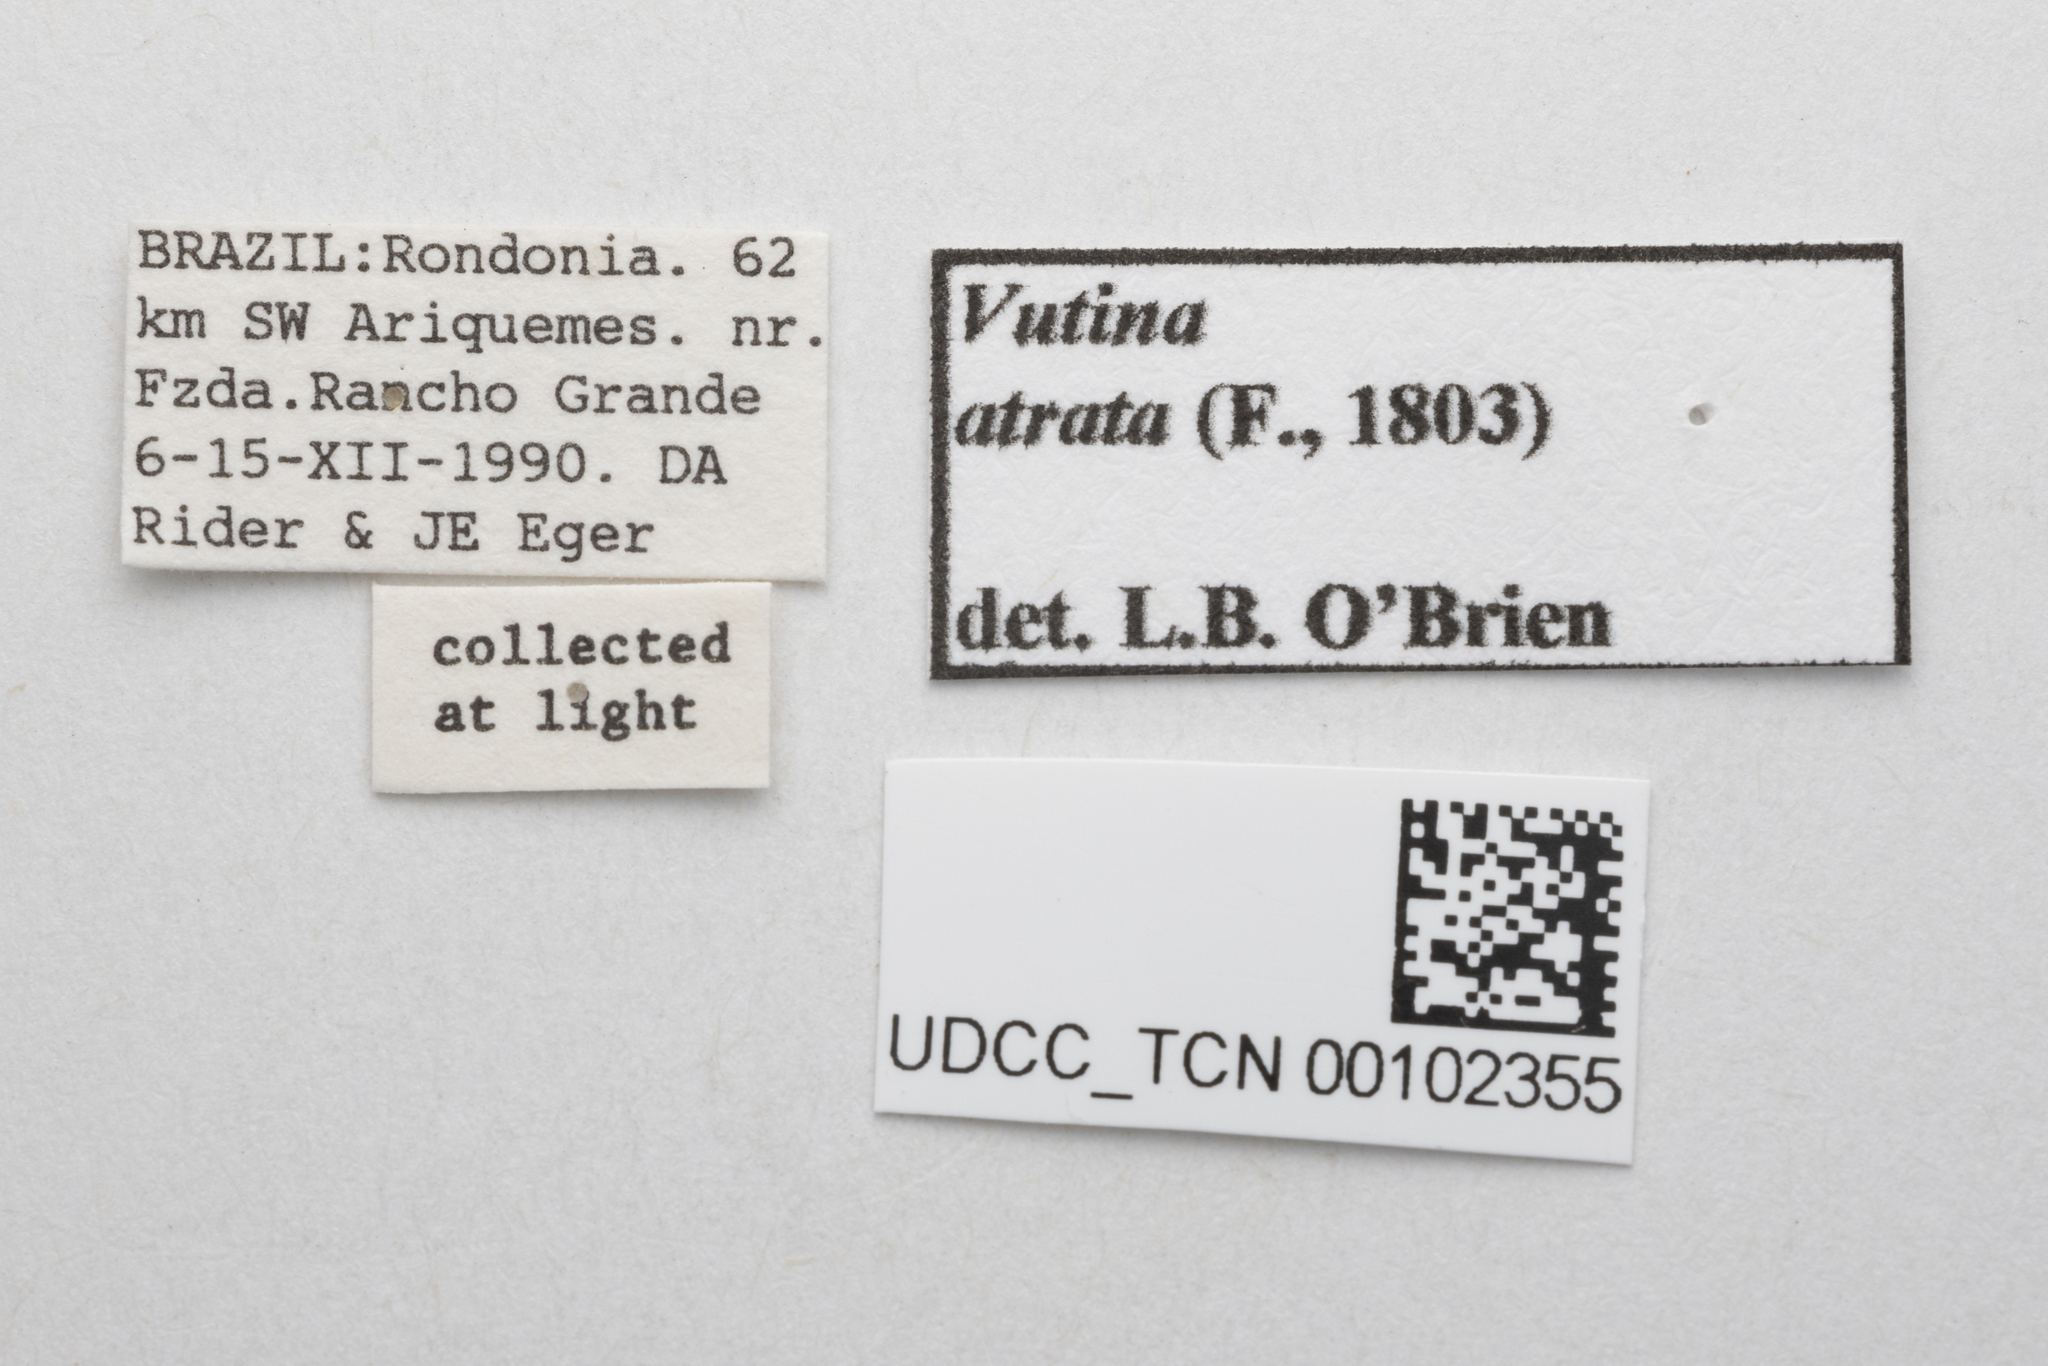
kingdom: Animalia
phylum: Arthropoda
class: Insecta
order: Hemiptera
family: Nogodinidae
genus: Vutina
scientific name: Vutina atrata
